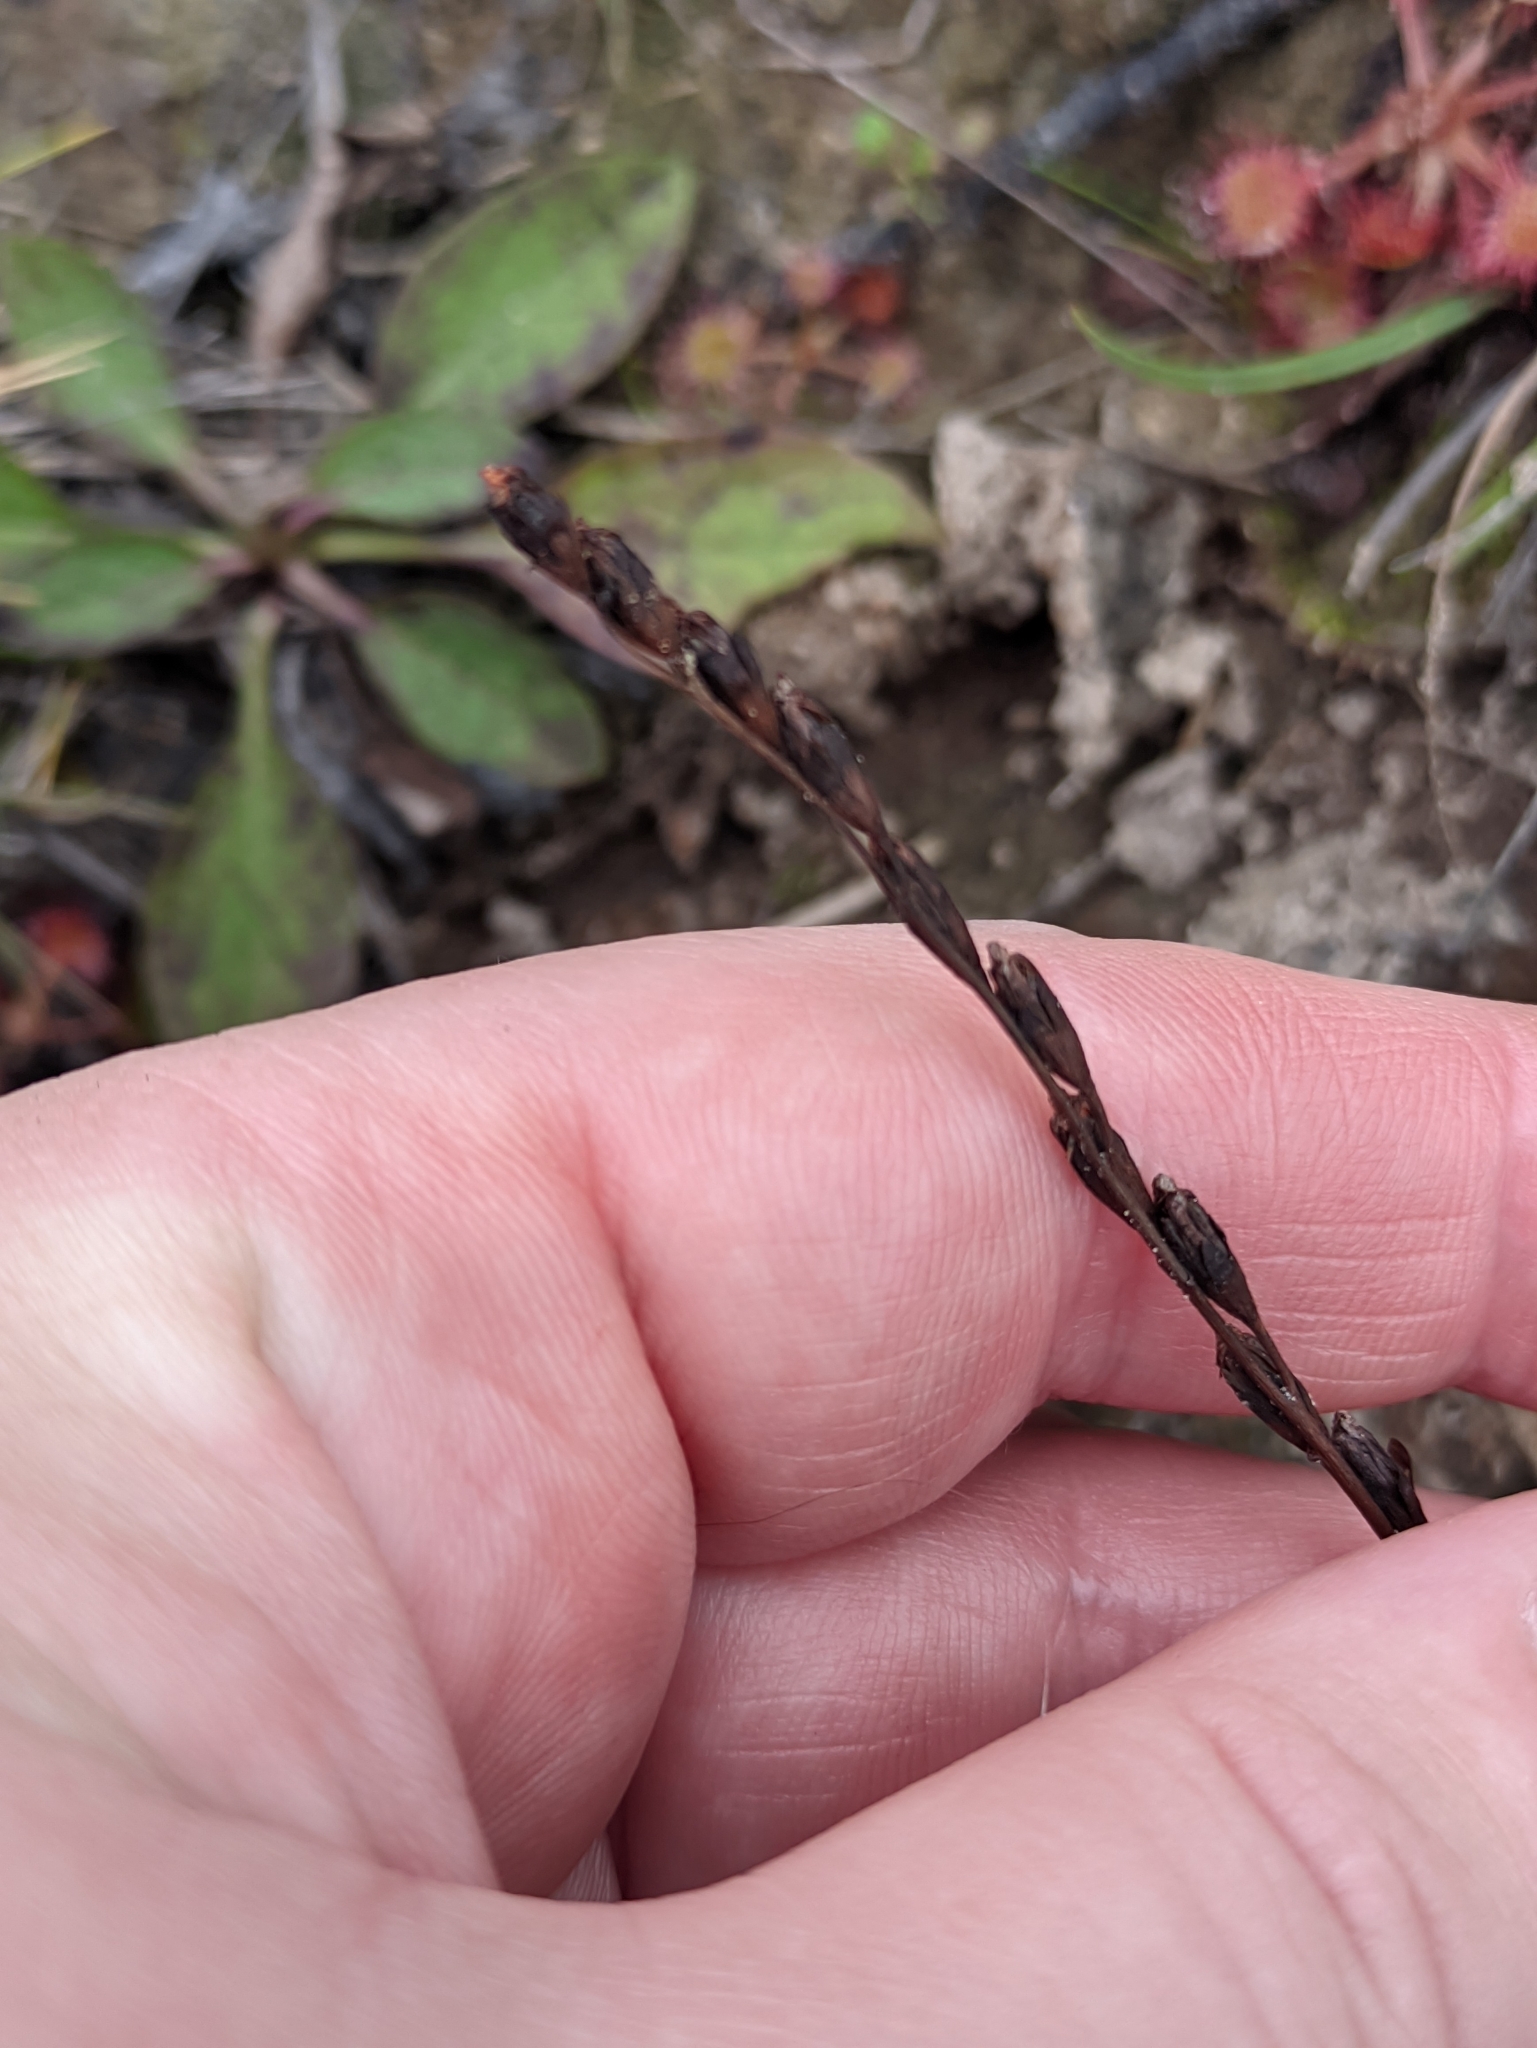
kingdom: Plantae
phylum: Tracheophyta
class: Magnoliopsida
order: Caryophyllales
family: Droseraceae
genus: Drosera
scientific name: Drosera rotundifolia
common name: Round-leaved sundew
